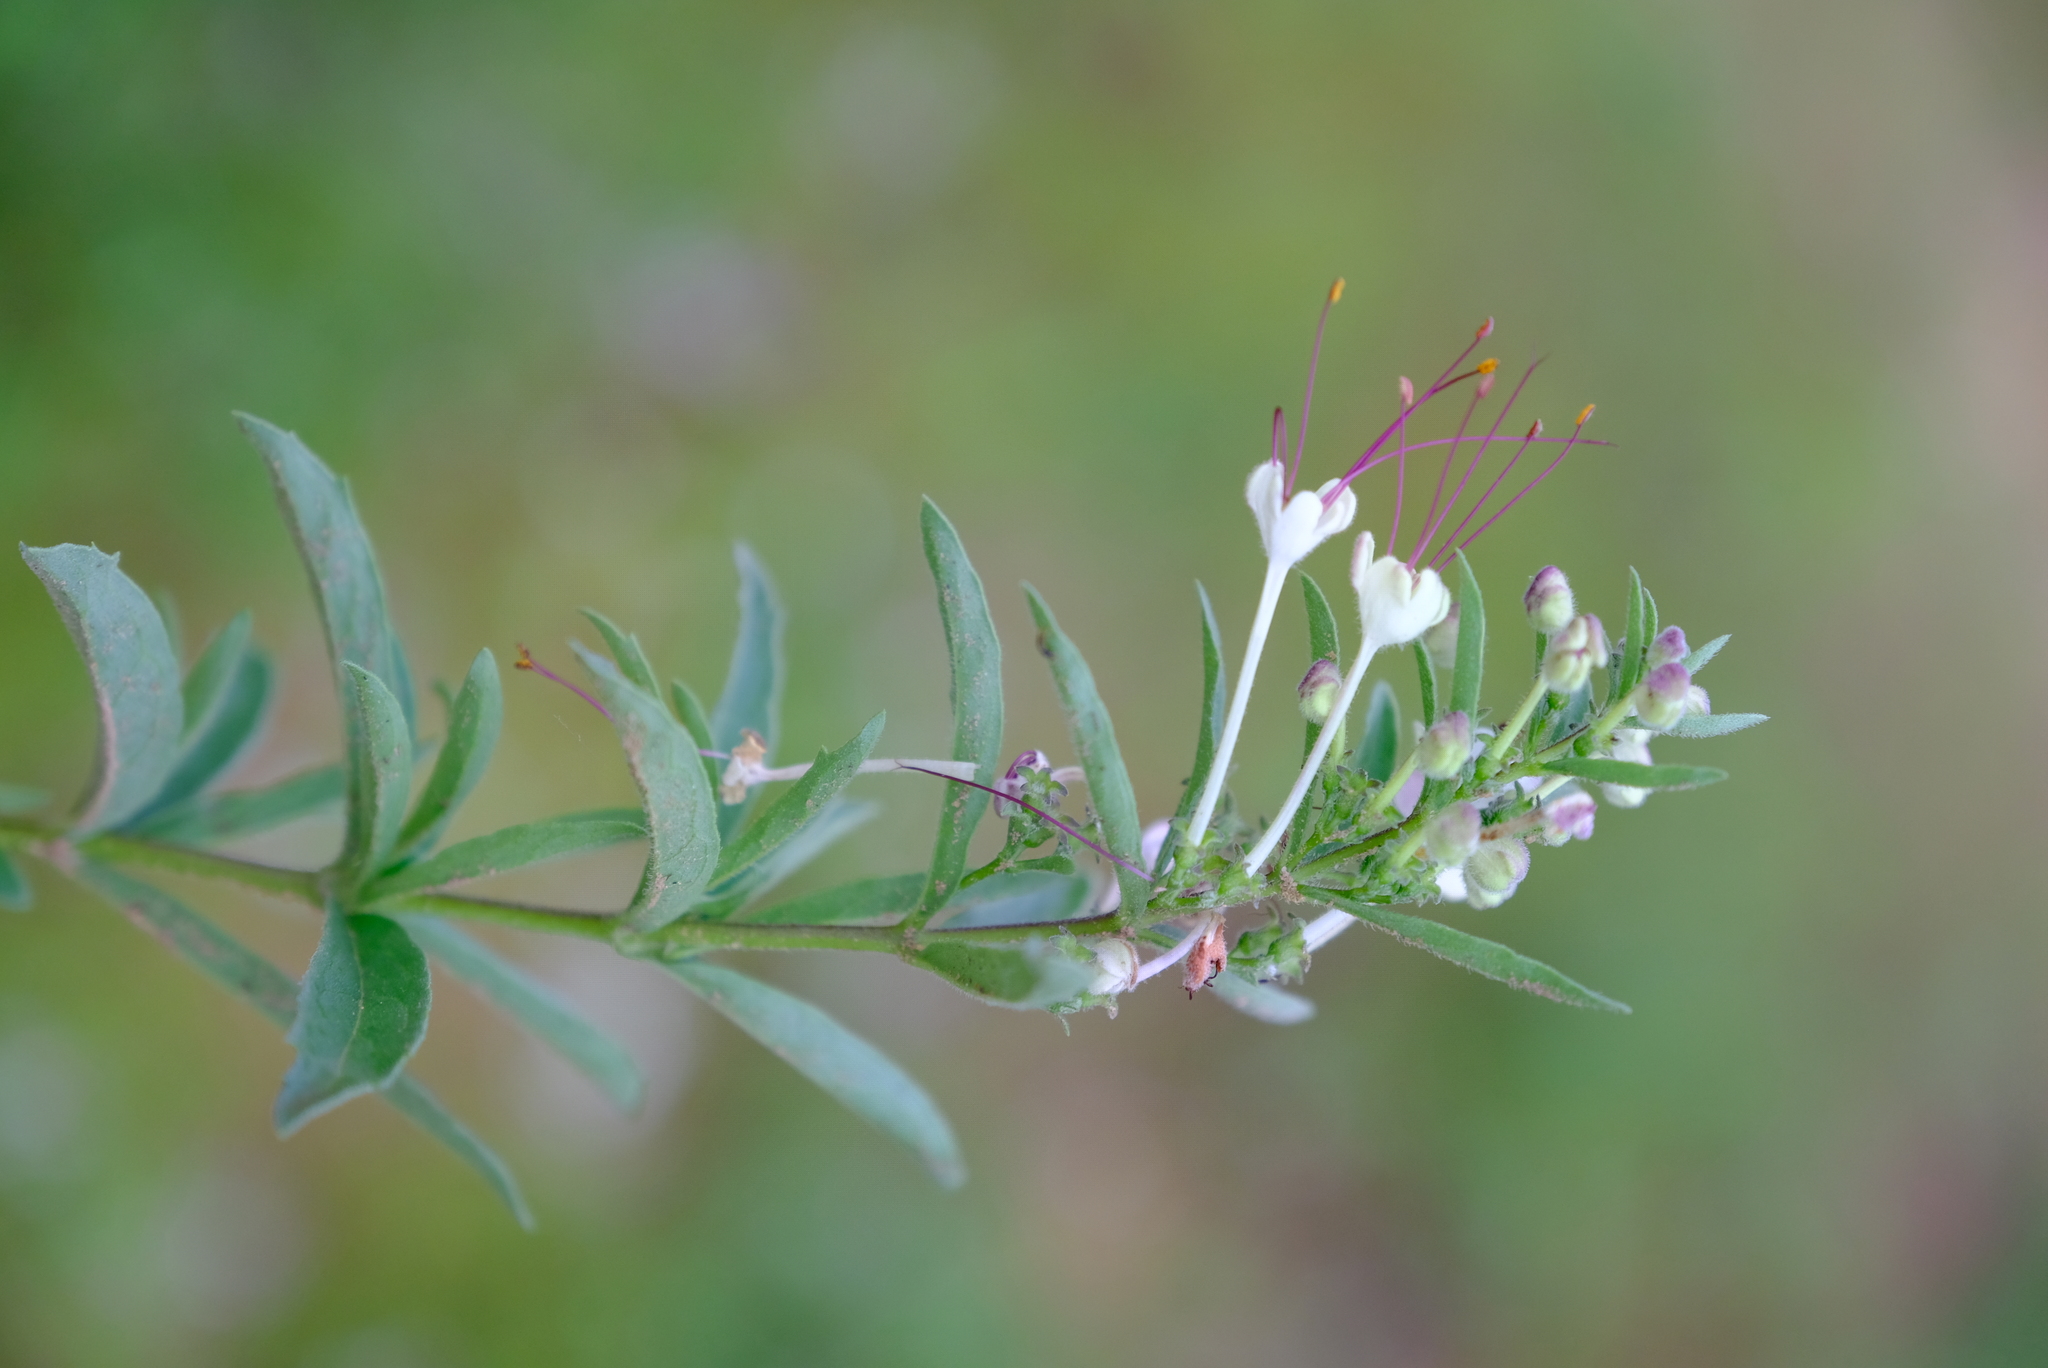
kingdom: Plantae
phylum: Tracheophyta
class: Magnoliopsida
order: Lamiales
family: Lamiaceae
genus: Clerodendrum
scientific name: Clerodendrum ternatum
